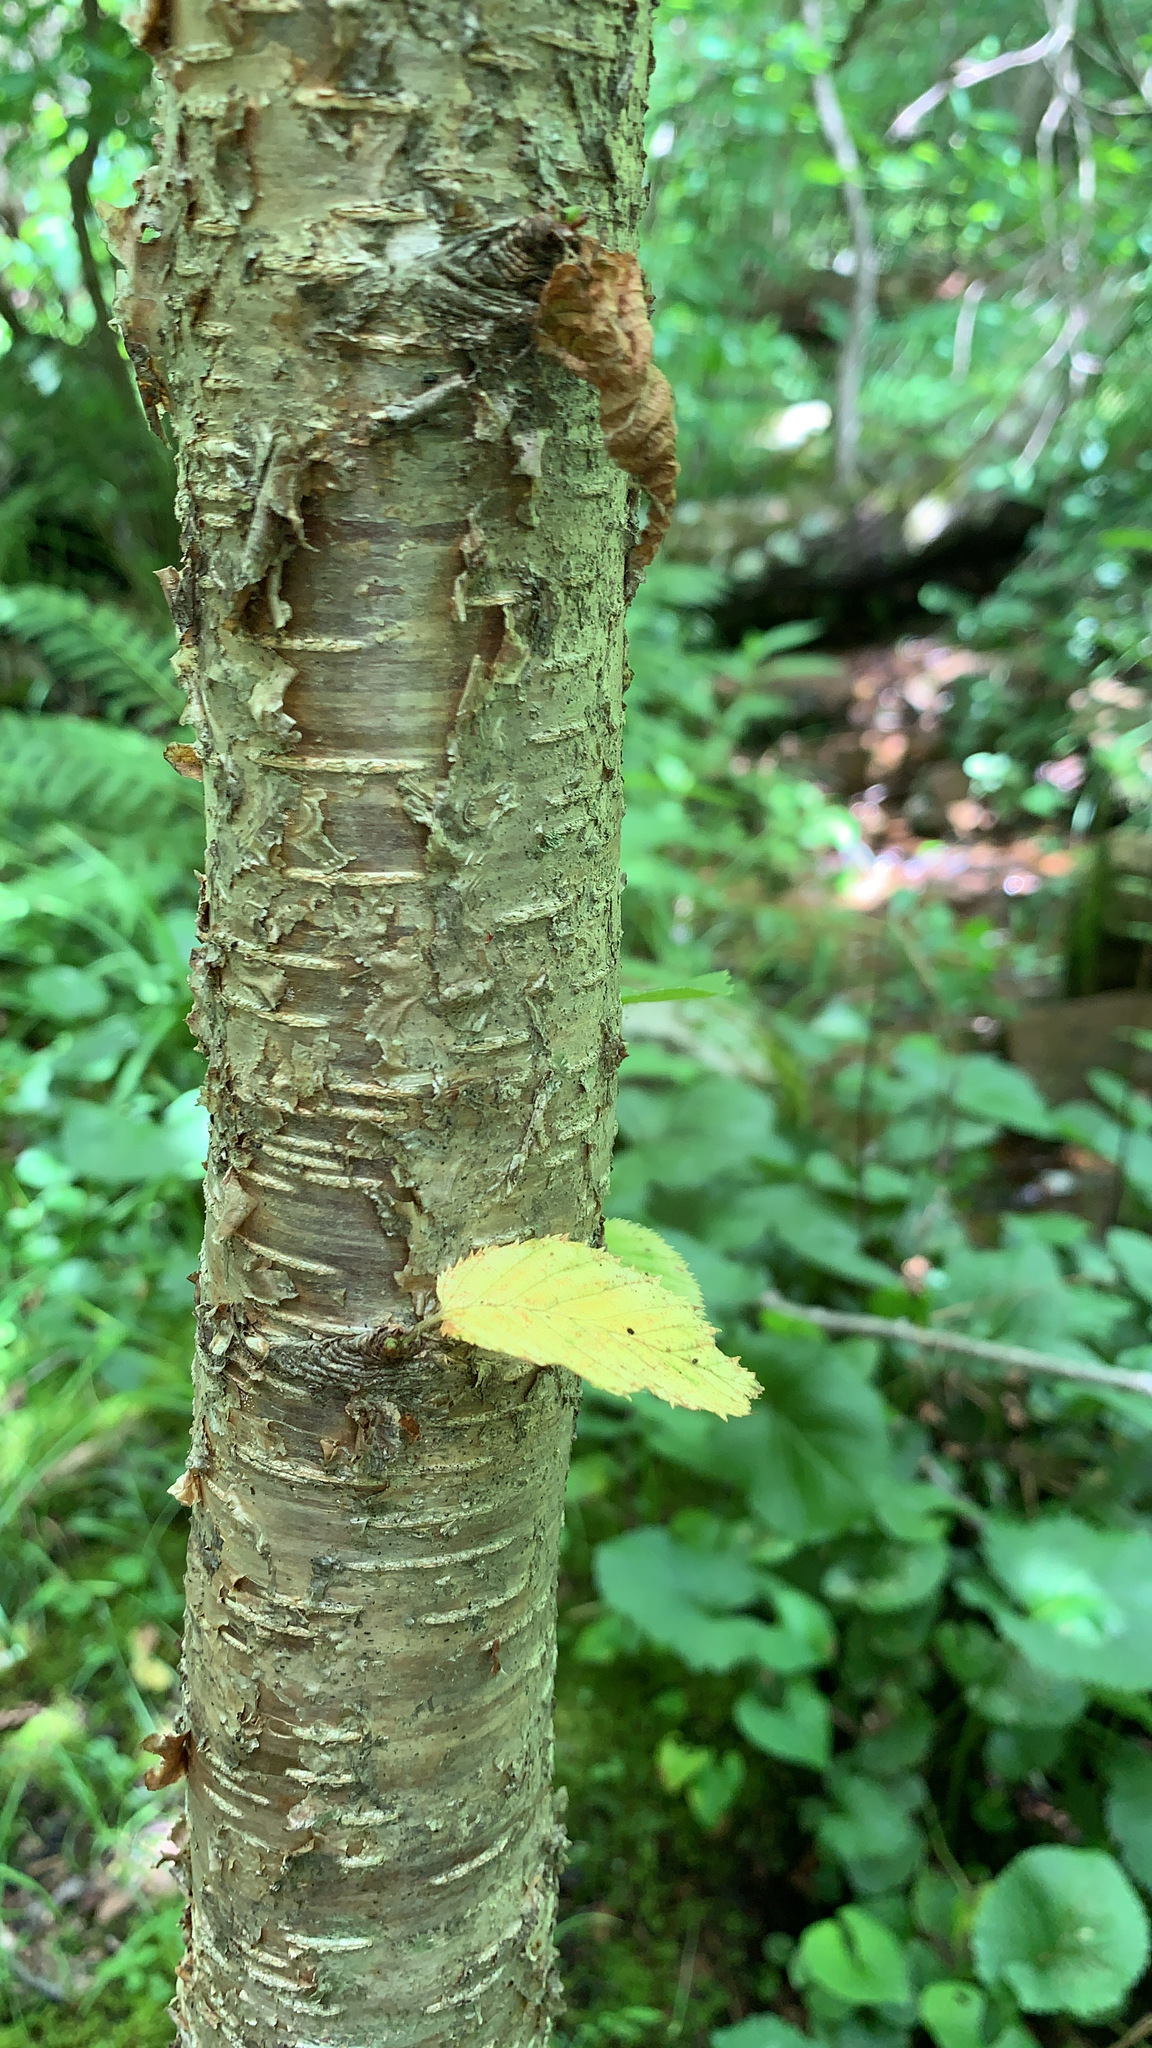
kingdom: Plantae
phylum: Tracheophyta
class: Magnoliopsida
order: Fagales
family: Betulaceae
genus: Betula
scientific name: Betula alleghaniensis
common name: Yellow birch
